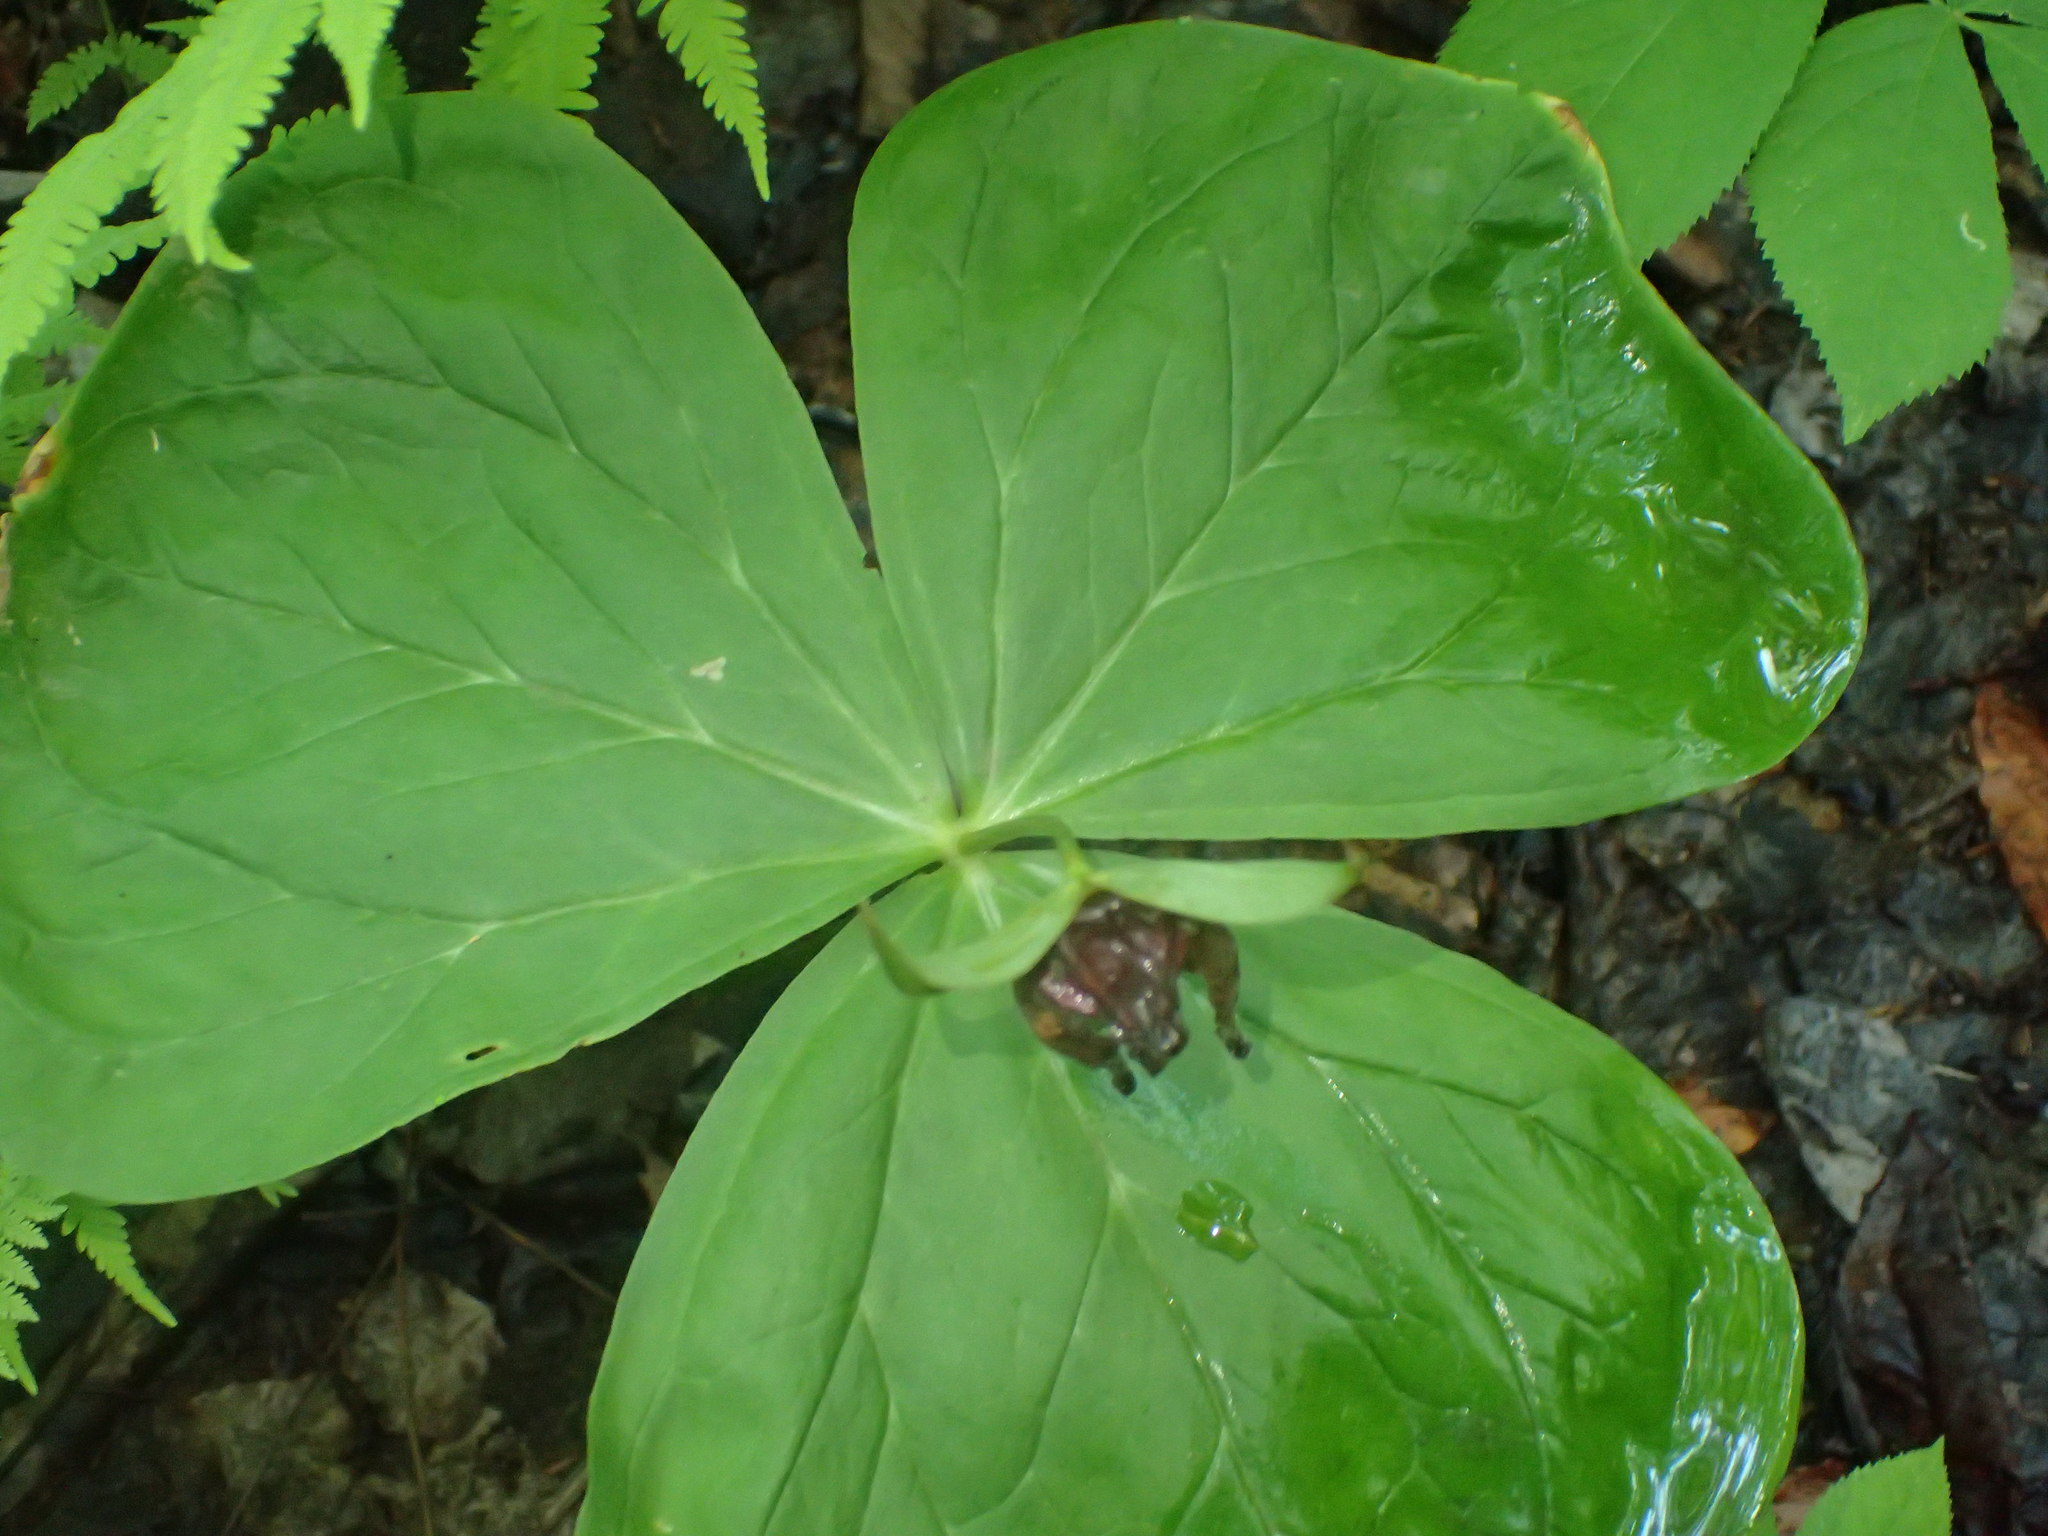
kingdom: Plantae
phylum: Tracheophyta
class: Liliopsida
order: Liliales
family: Melanthiaceae
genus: Trillium
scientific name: Trillium erectum
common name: Purple trillium
